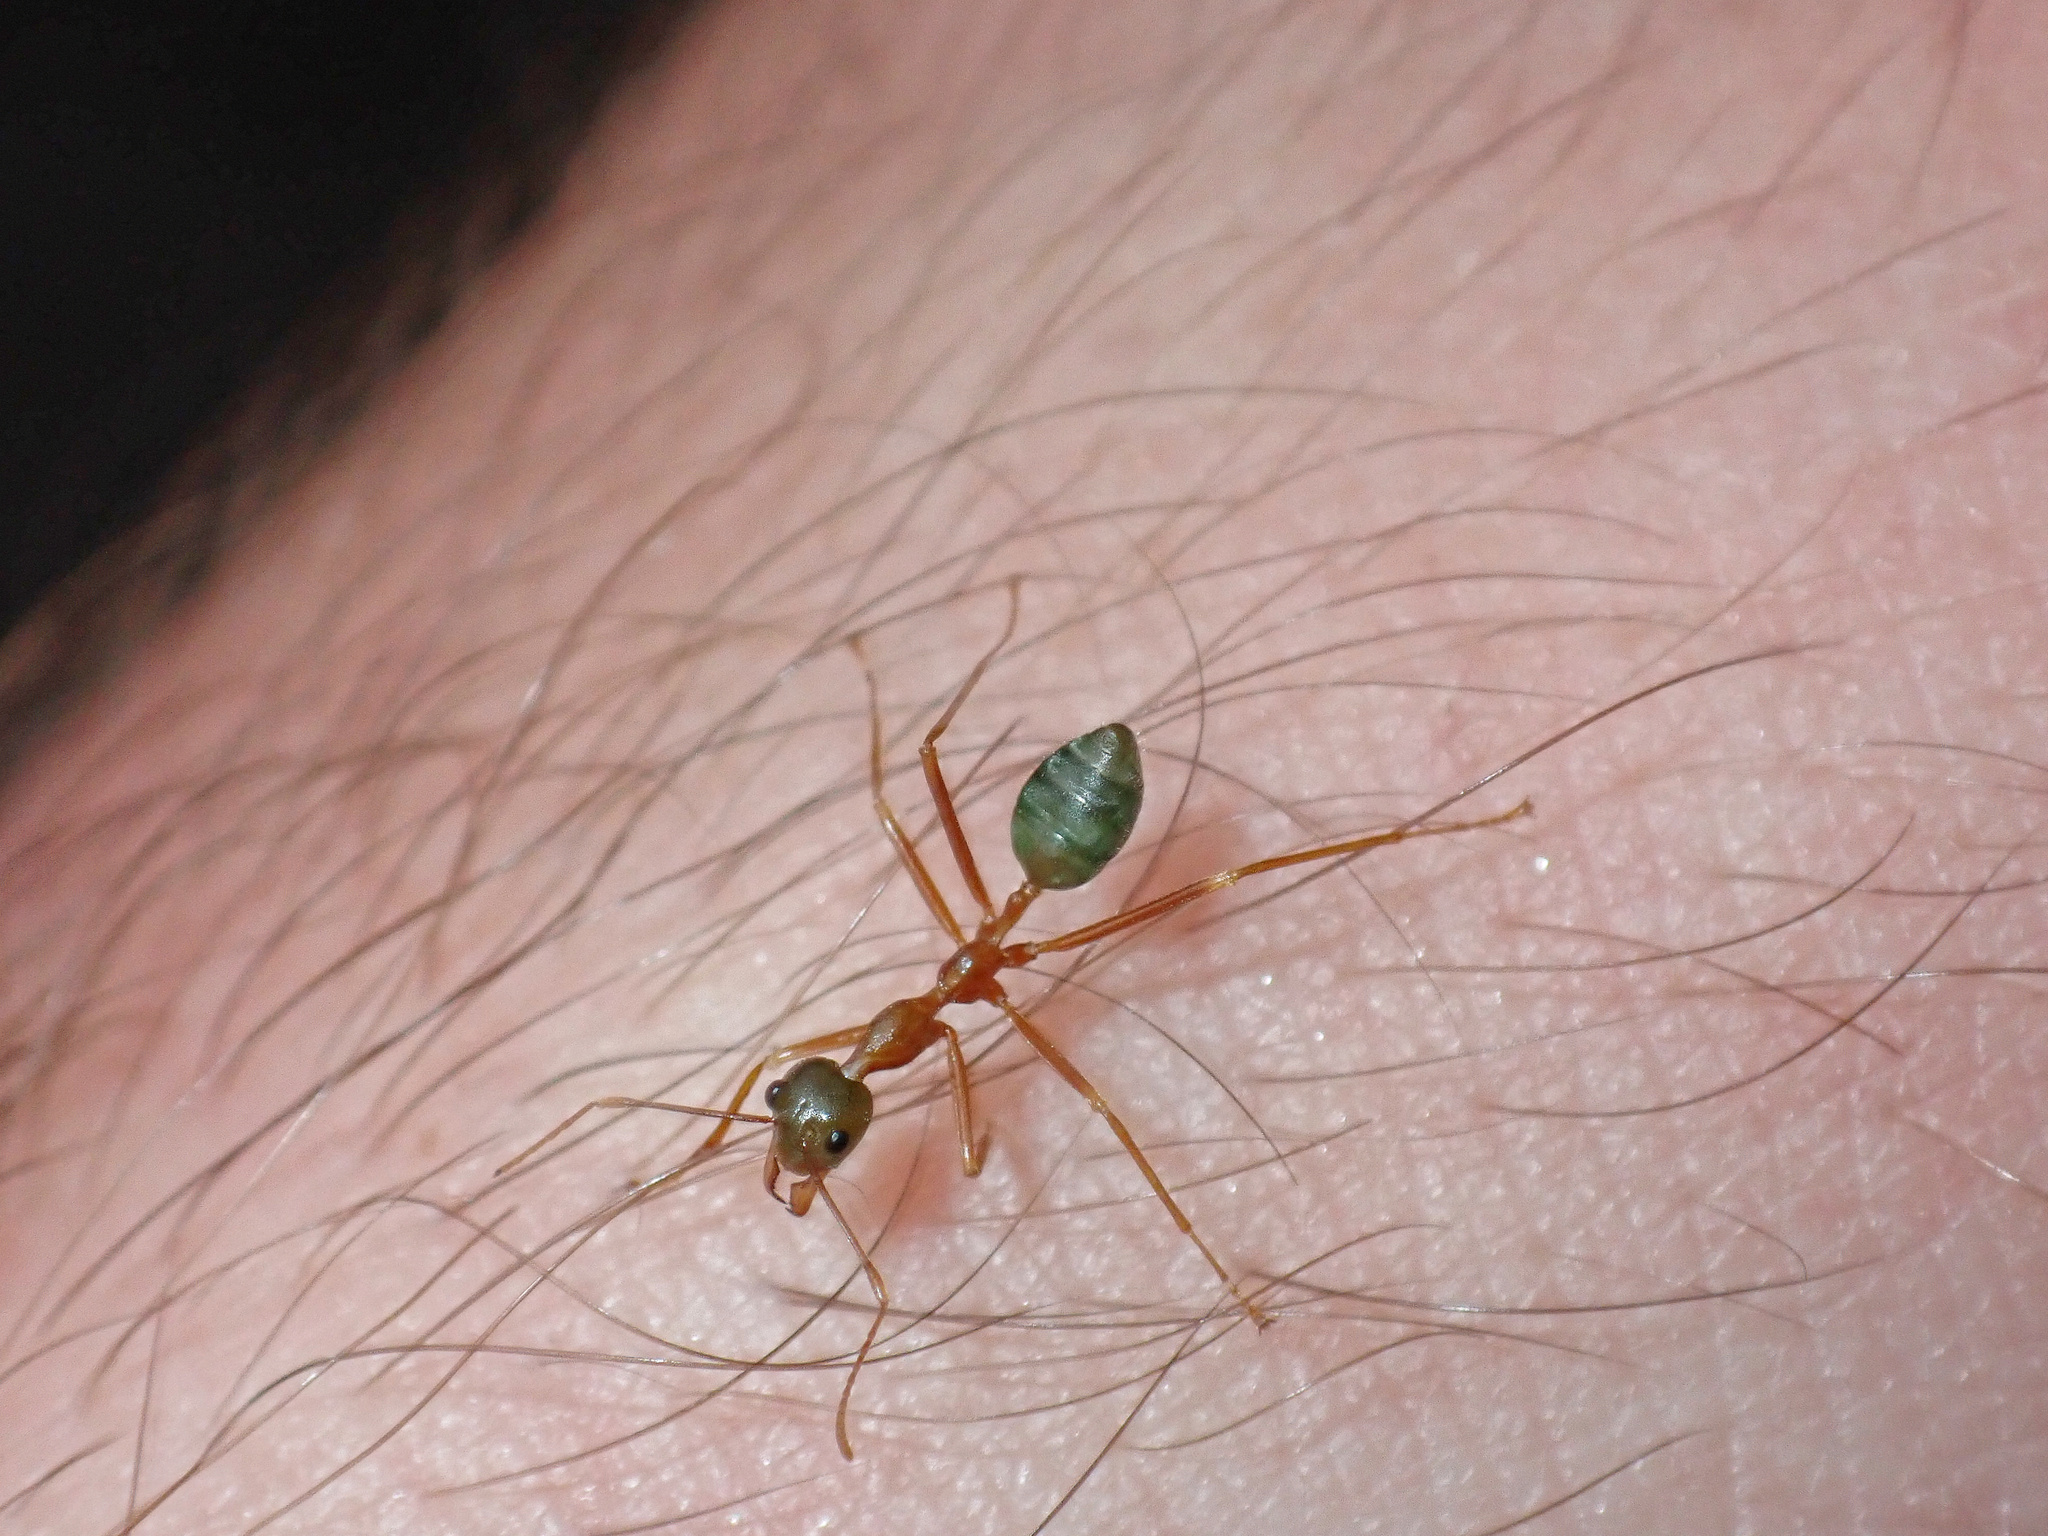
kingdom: Animalia
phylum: Arthropoda
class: Insecta
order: Hymenoptera
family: Formicidae
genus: Oecophylla
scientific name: Oecophylla smaragdina
